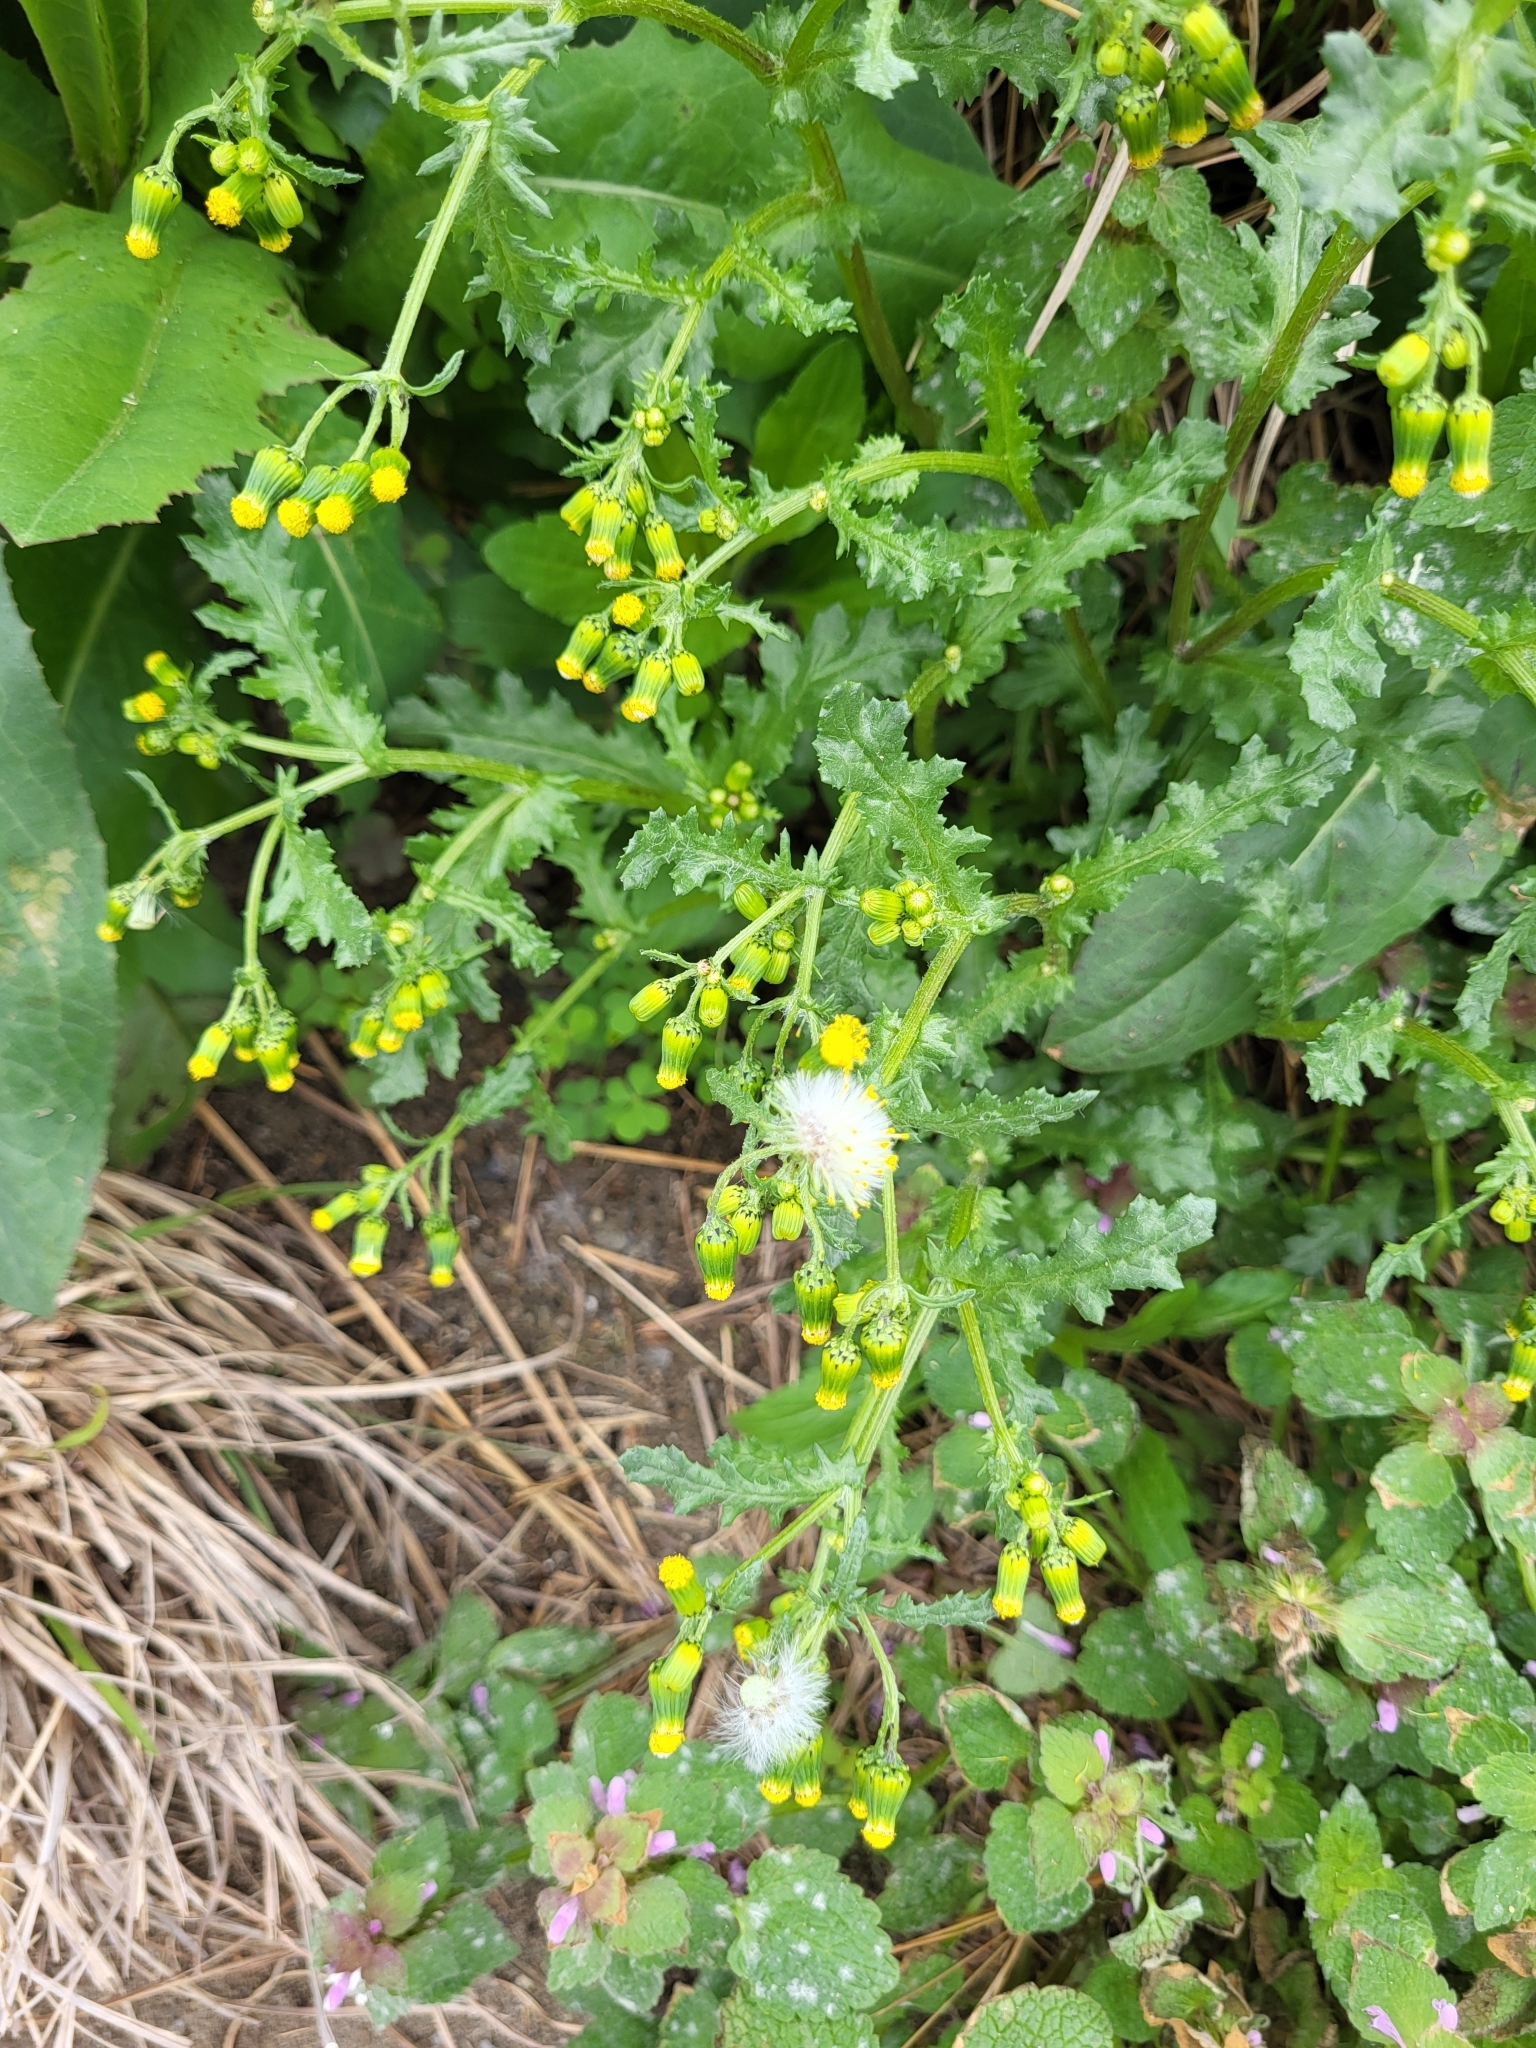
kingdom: Plantae
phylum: Tracheophyta
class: Magnoliopsida
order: Asterales
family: Asteraceae
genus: Senecio
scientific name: Senecio vulgaris
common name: Old-man-in-the-spring
